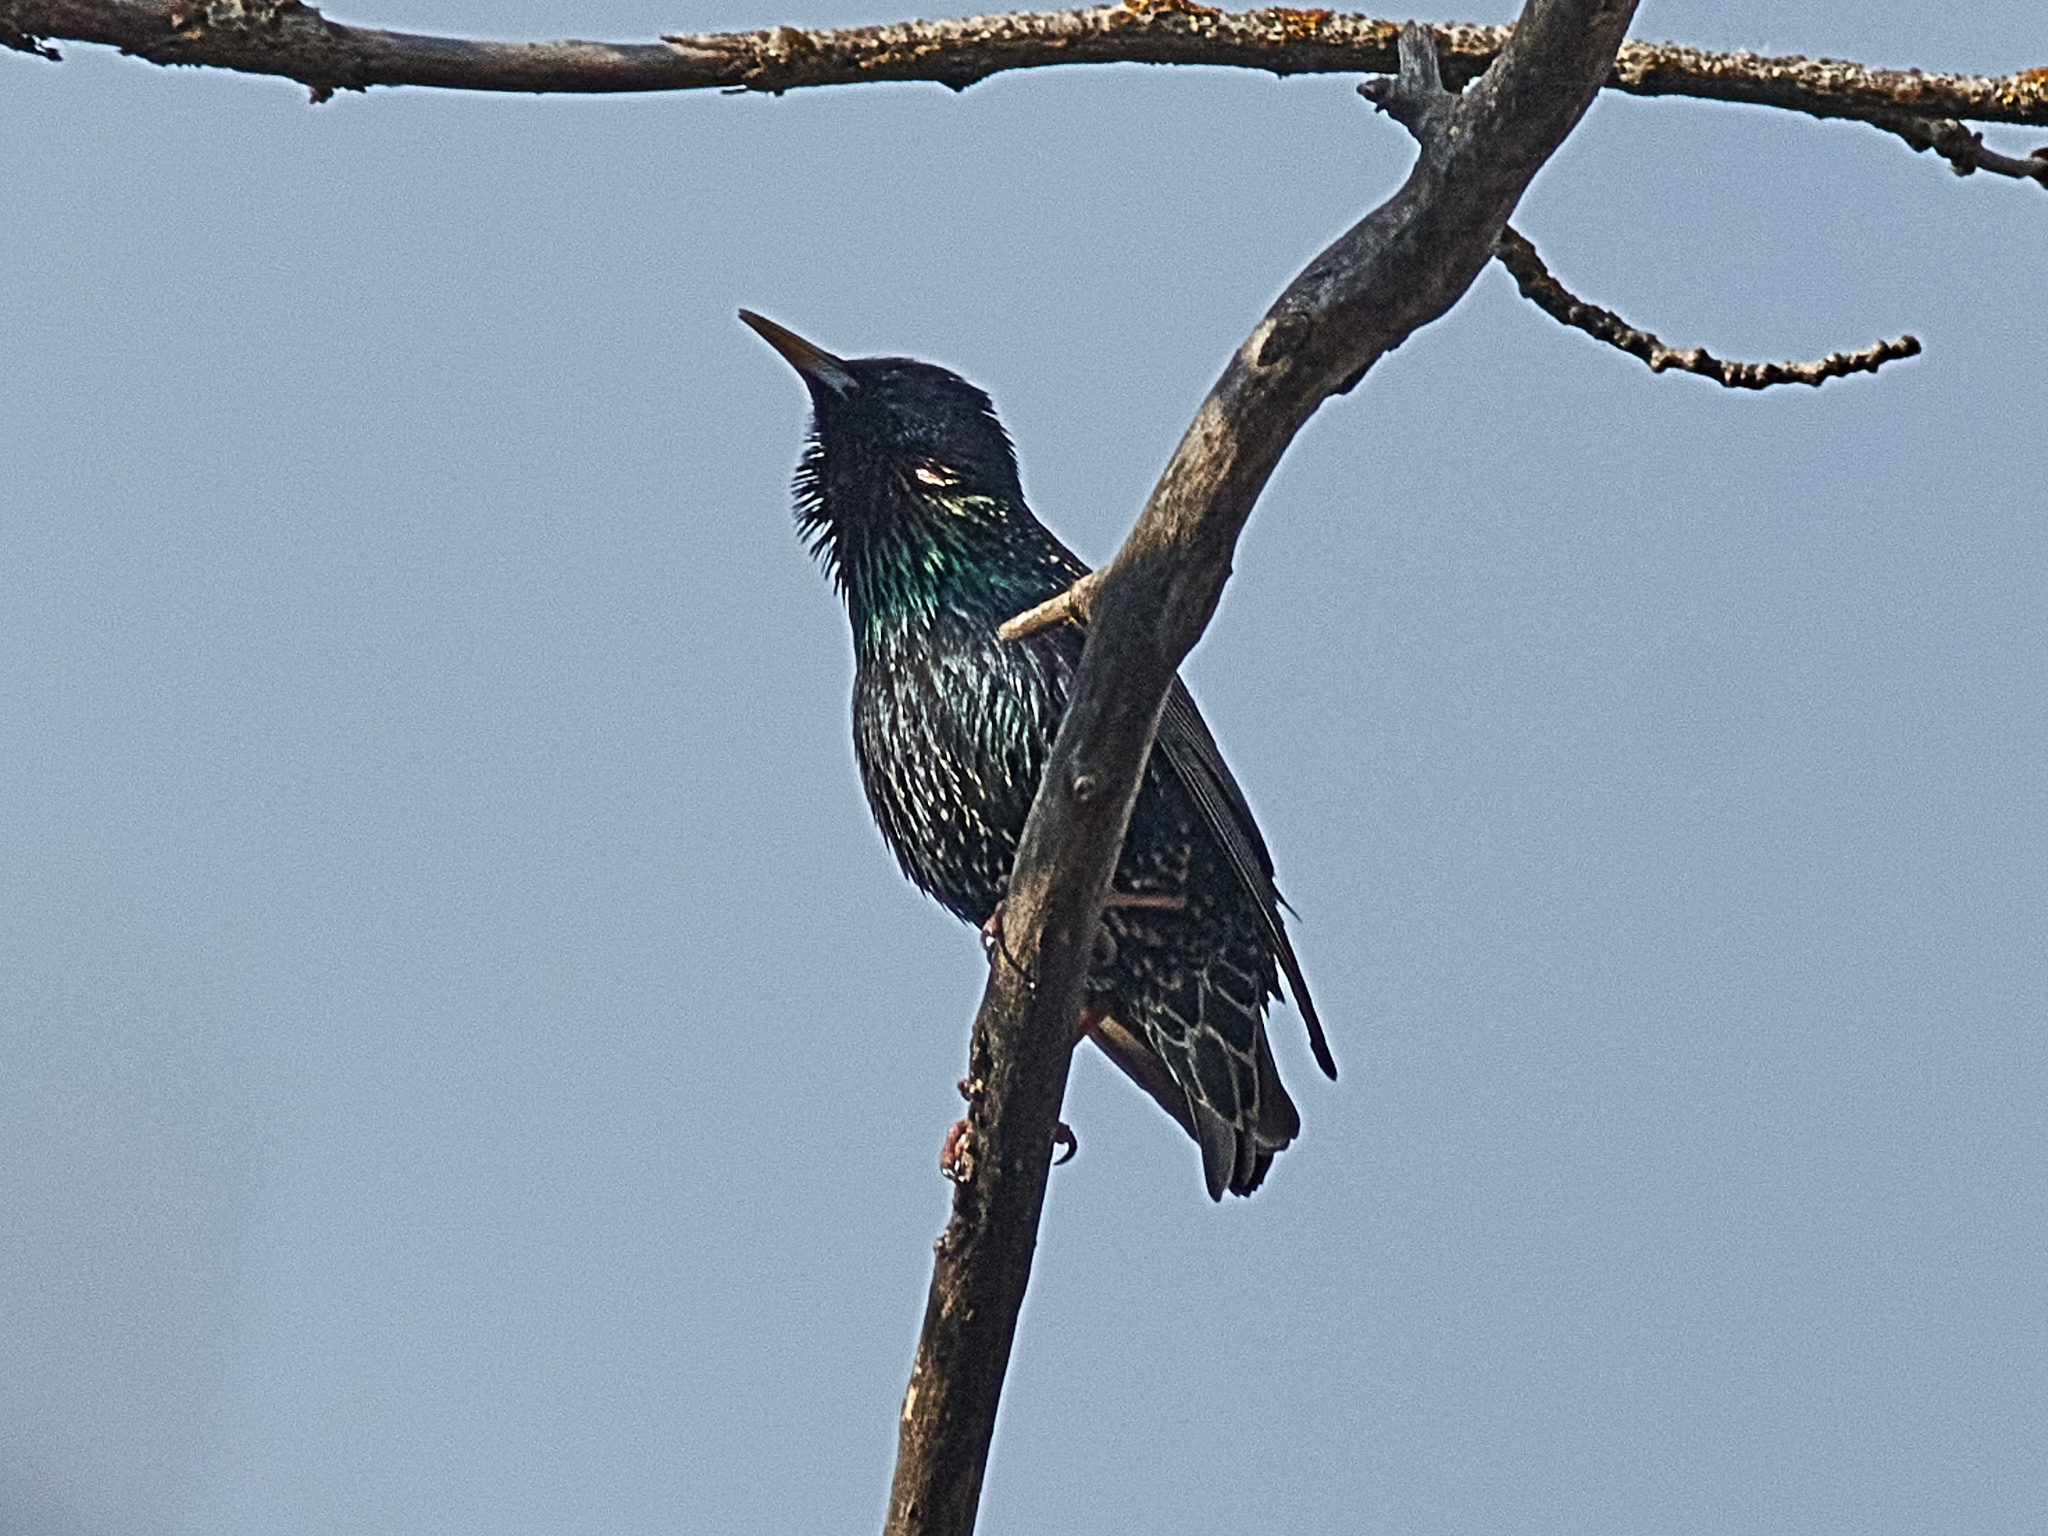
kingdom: Animalia
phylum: Chordata
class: Aves
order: Passeriformes
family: Sturnidae
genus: Sturnus
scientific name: Sturnus vulgaris
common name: Common starling
